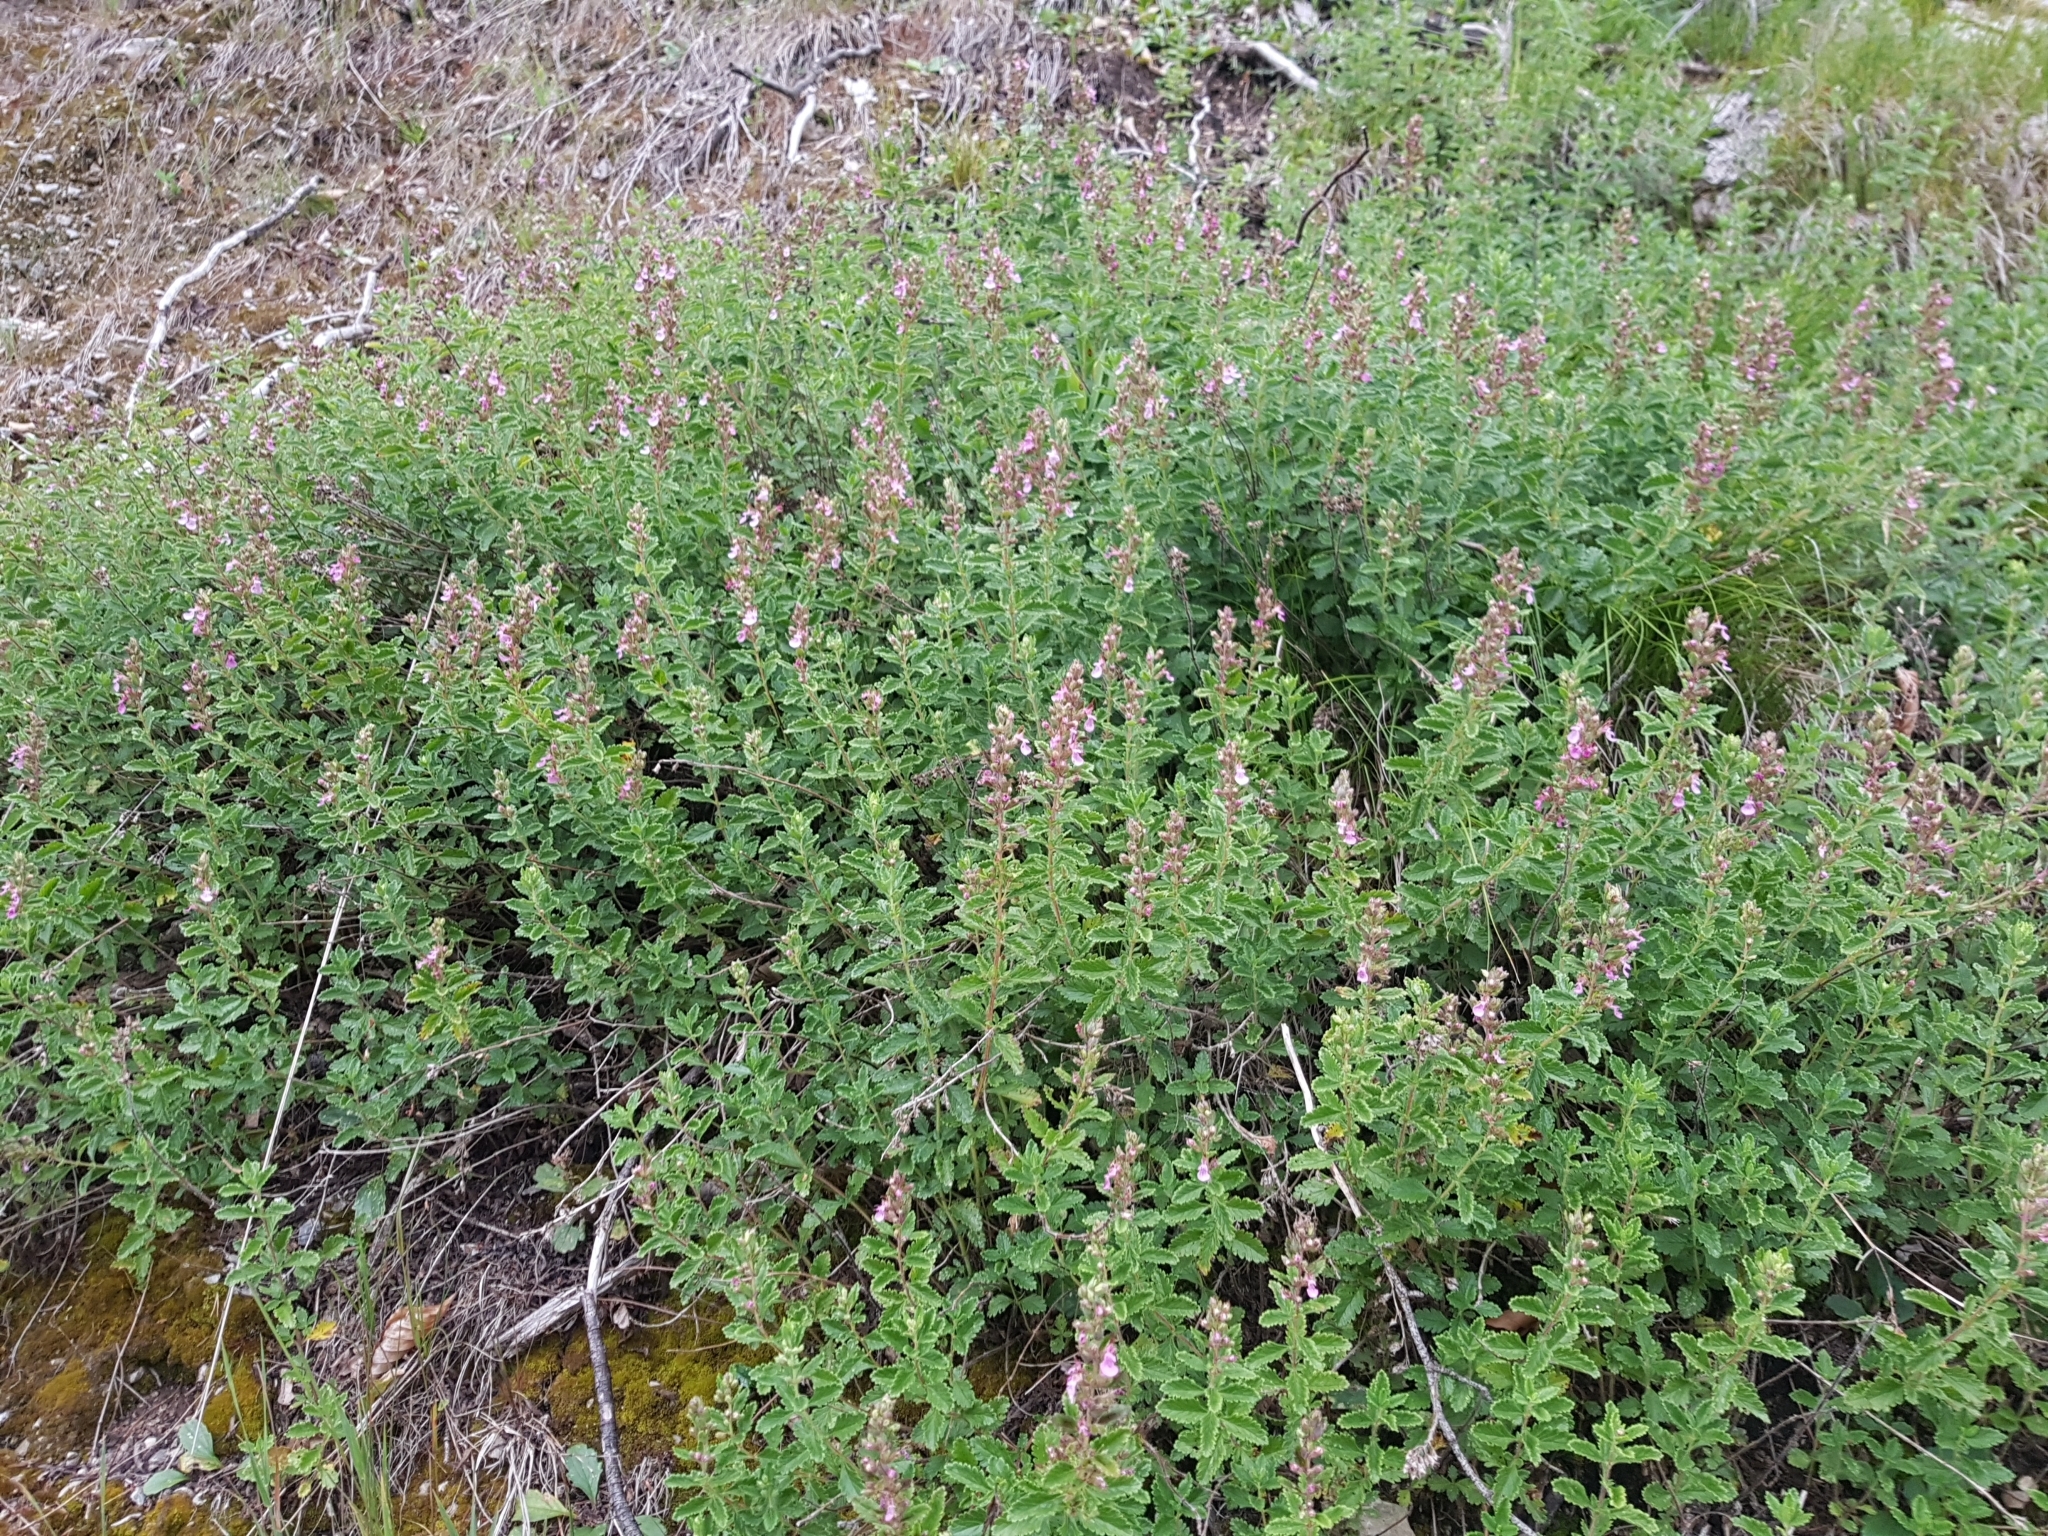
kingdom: Plantae
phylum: Tracheophyta
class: Magnoliopsida
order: Lamiales
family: Lamiaceae
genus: Teucrium
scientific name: Teucrium chamaedrys
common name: Wall germander
